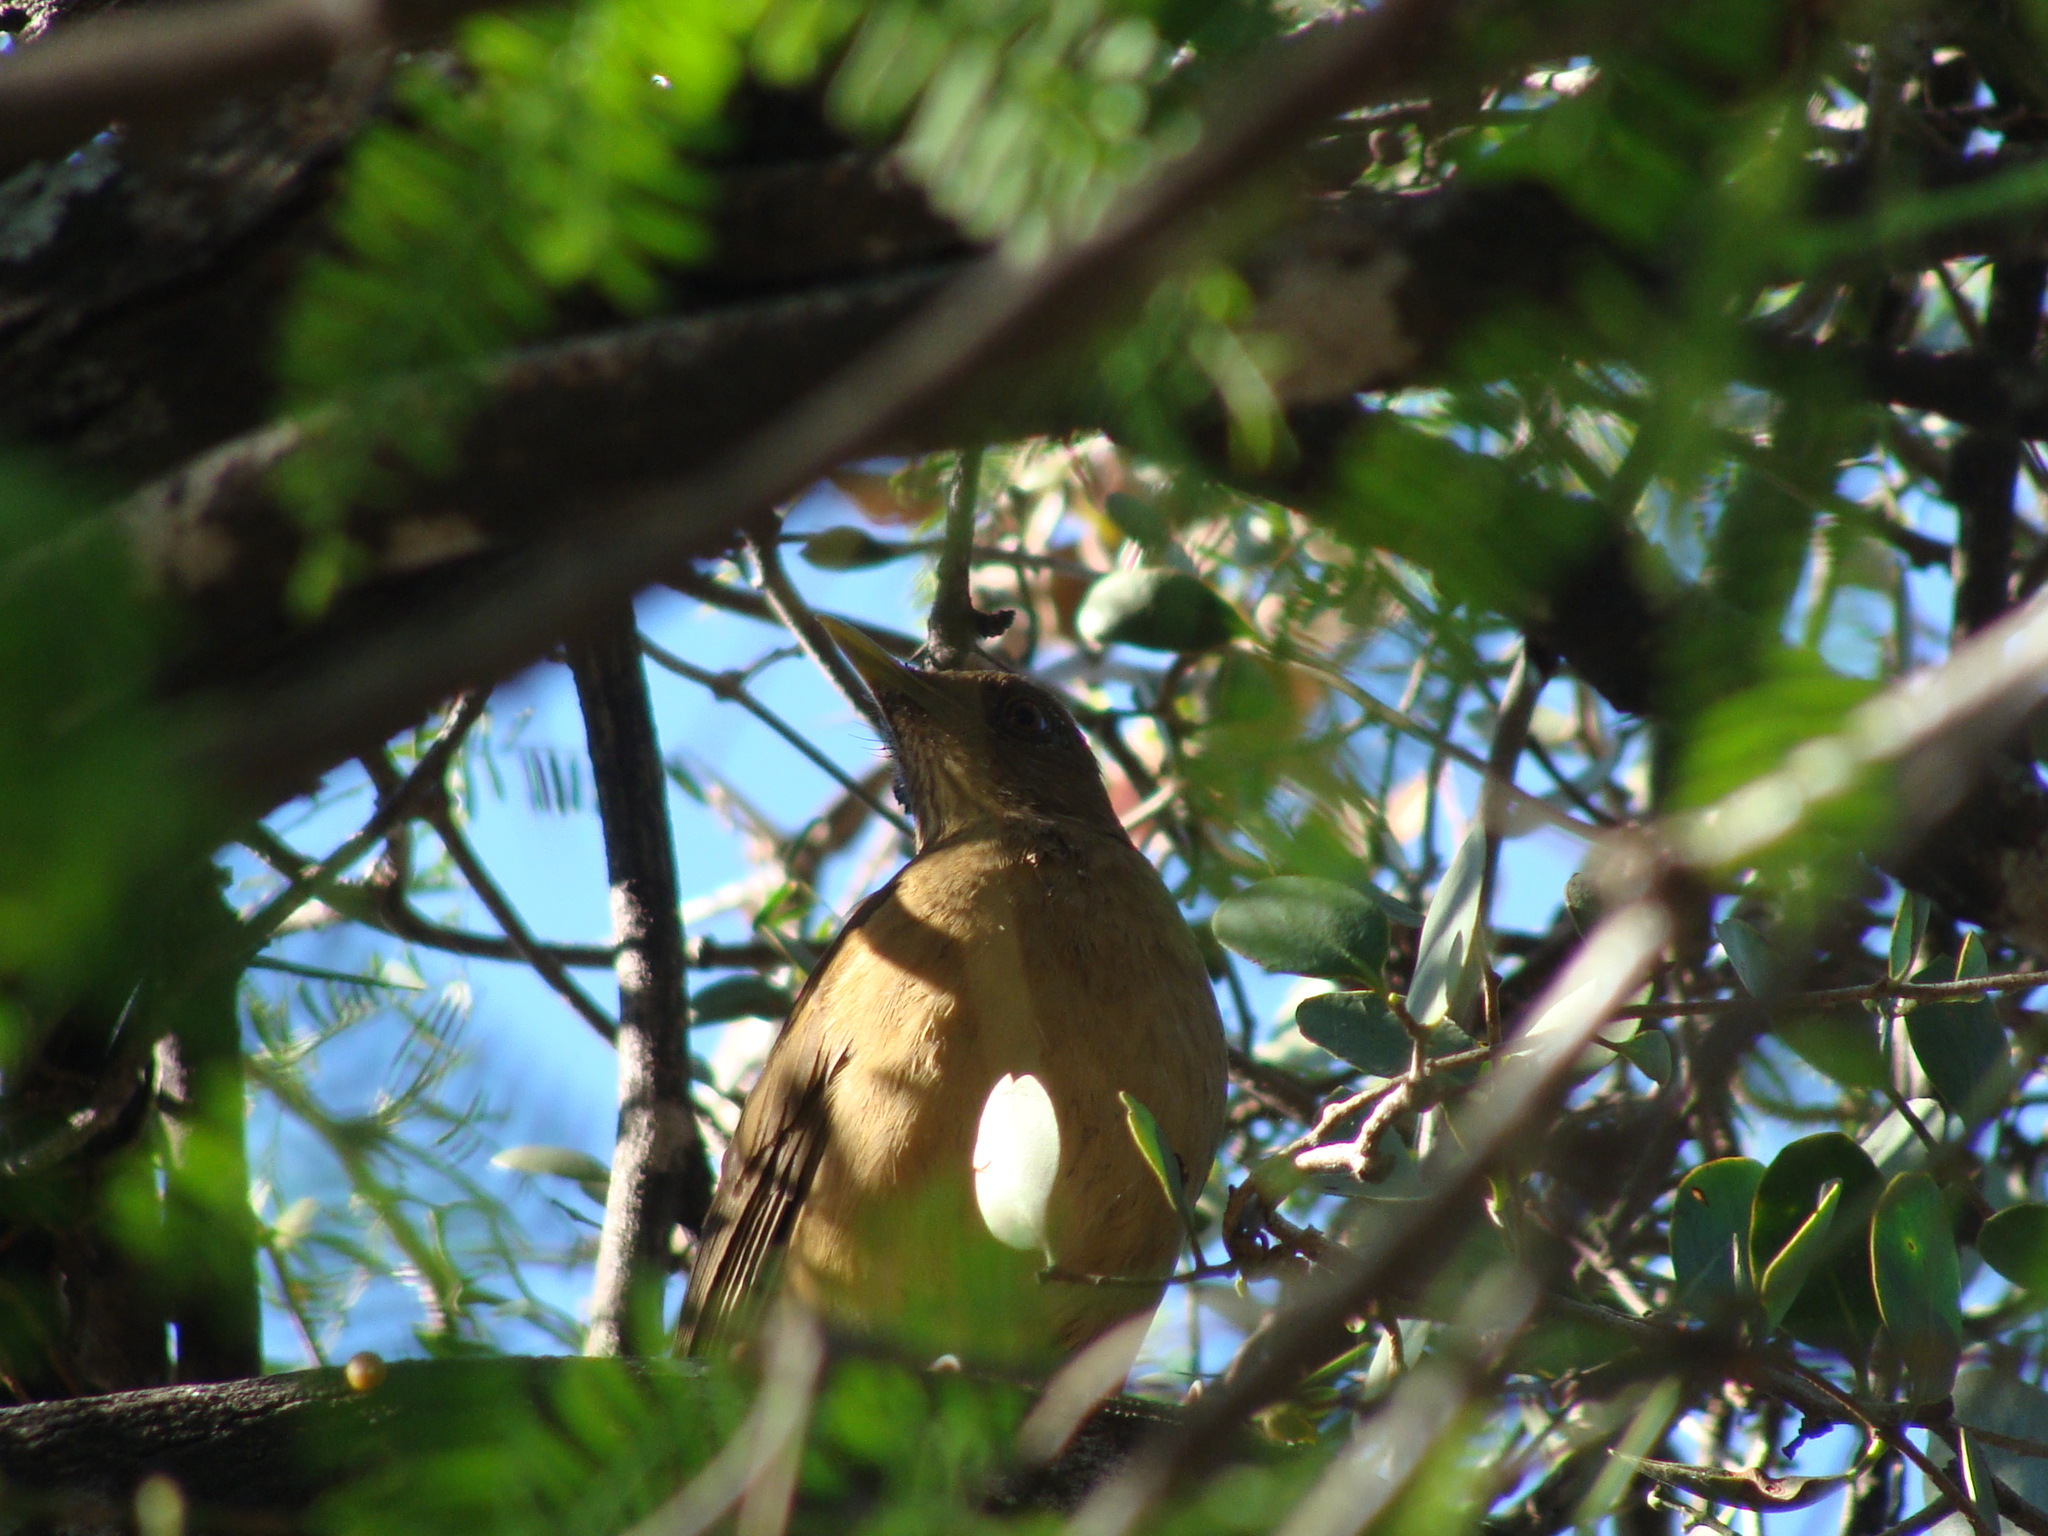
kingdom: Animalia
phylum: Chordata
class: Aves
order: Passeriformes
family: Turdidae
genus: Turdus
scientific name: Turdus grayi
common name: Clay-colored thrush
